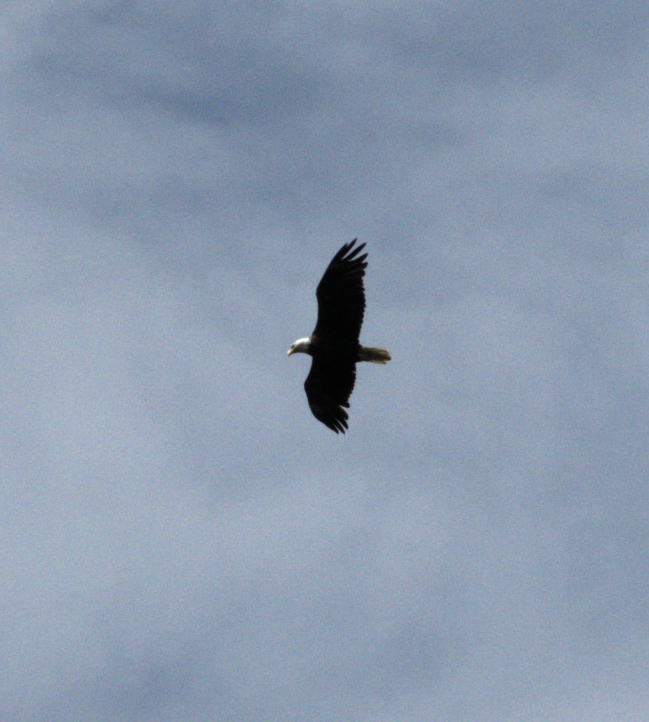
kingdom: Animalia
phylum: Chordata
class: Aves
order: Accipitriformes
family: Accipitridae
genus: Haliaeetus
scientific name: Haliaeetus leucocephalus
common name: Bald eagle
